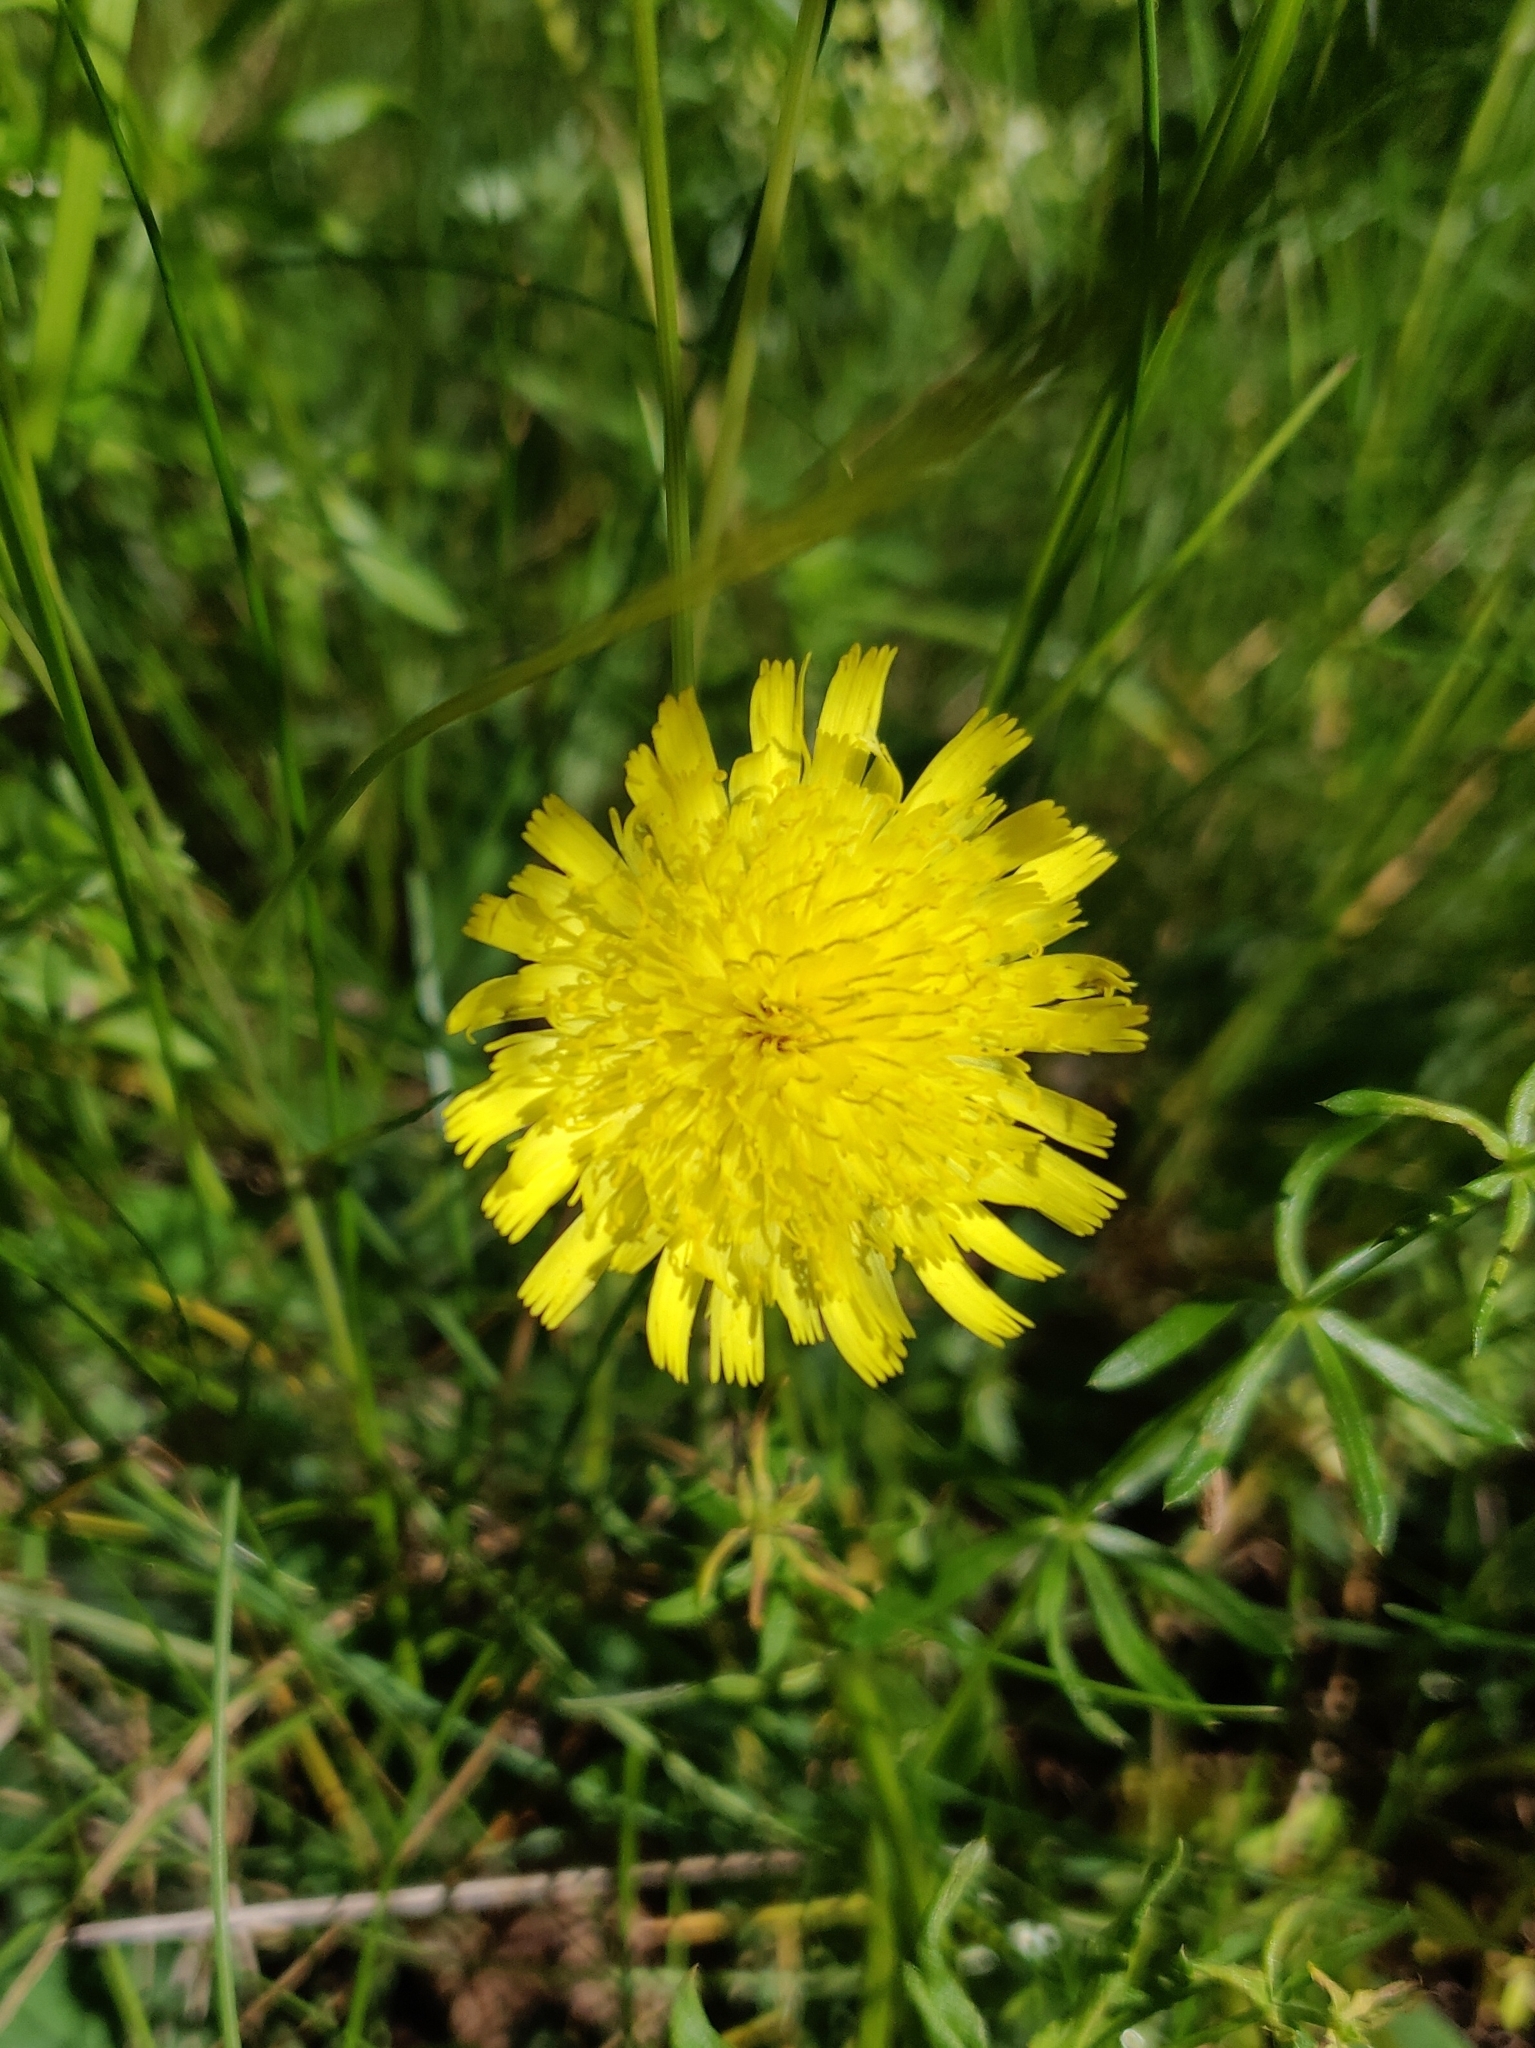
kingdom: Plantae
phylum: Tracheophyta
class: Magnoliopsida
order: Asterales
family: Asteraceae
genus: Pilosella
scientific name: Pilosella officinarum
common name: Mouse-ear hawkweed
